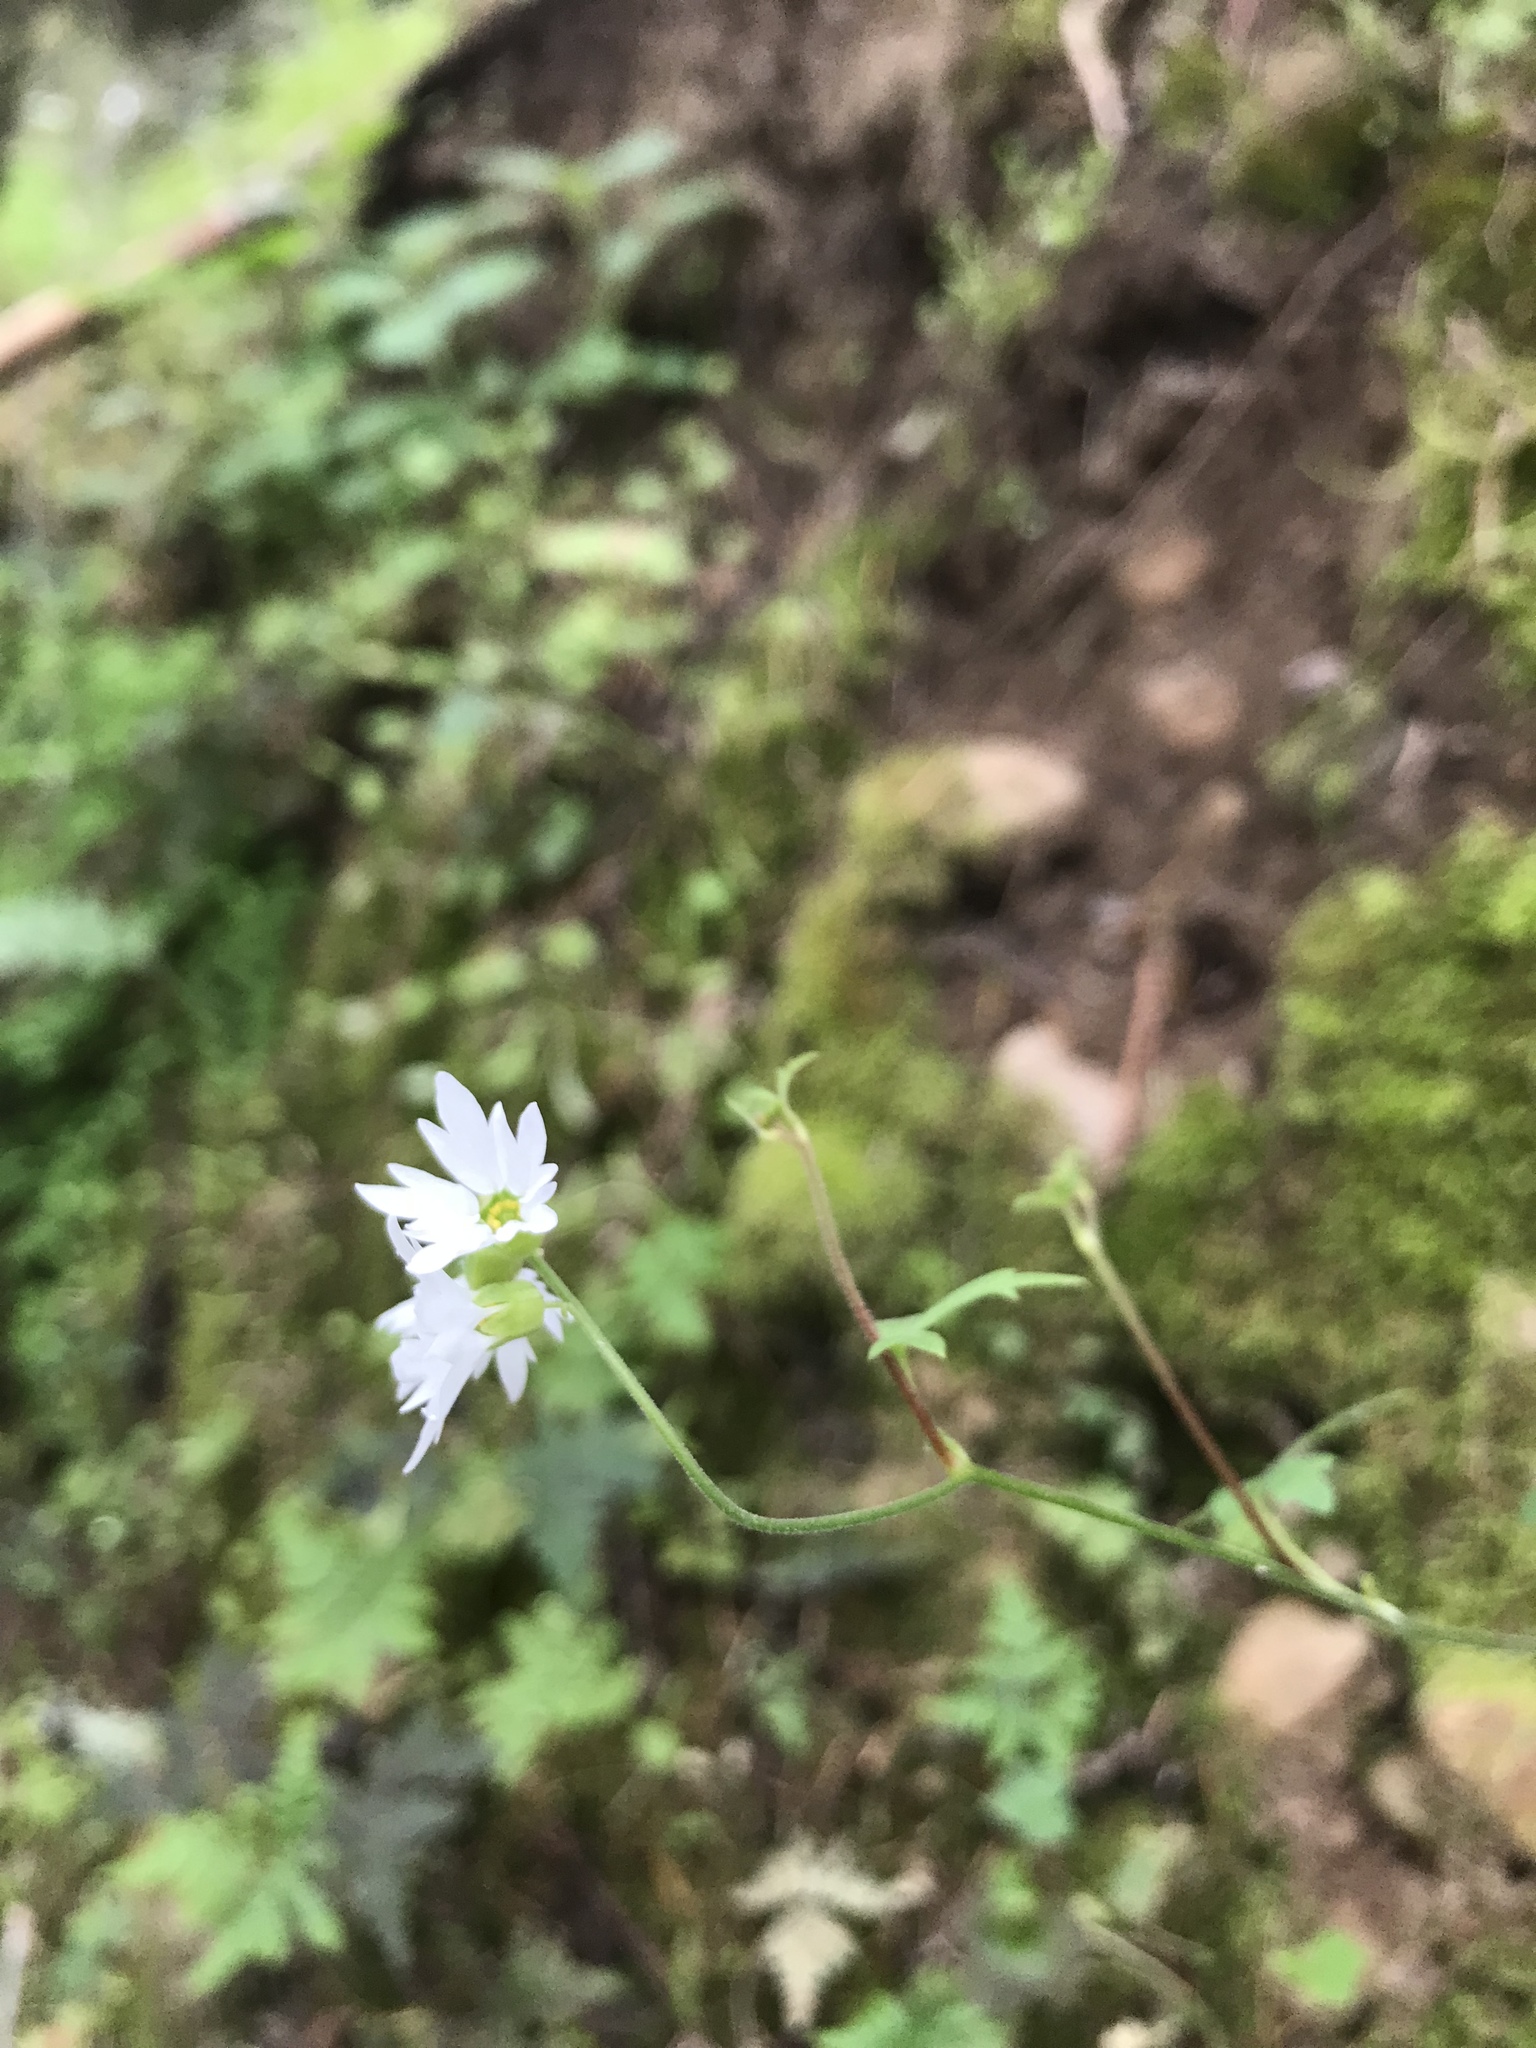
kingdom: Plantae
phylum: Tracheophyta
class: Magnoliopsida
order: Saxifragales
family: Saxifragaceae
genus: Lithophragma
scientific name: Lithophragma heterophyllum
